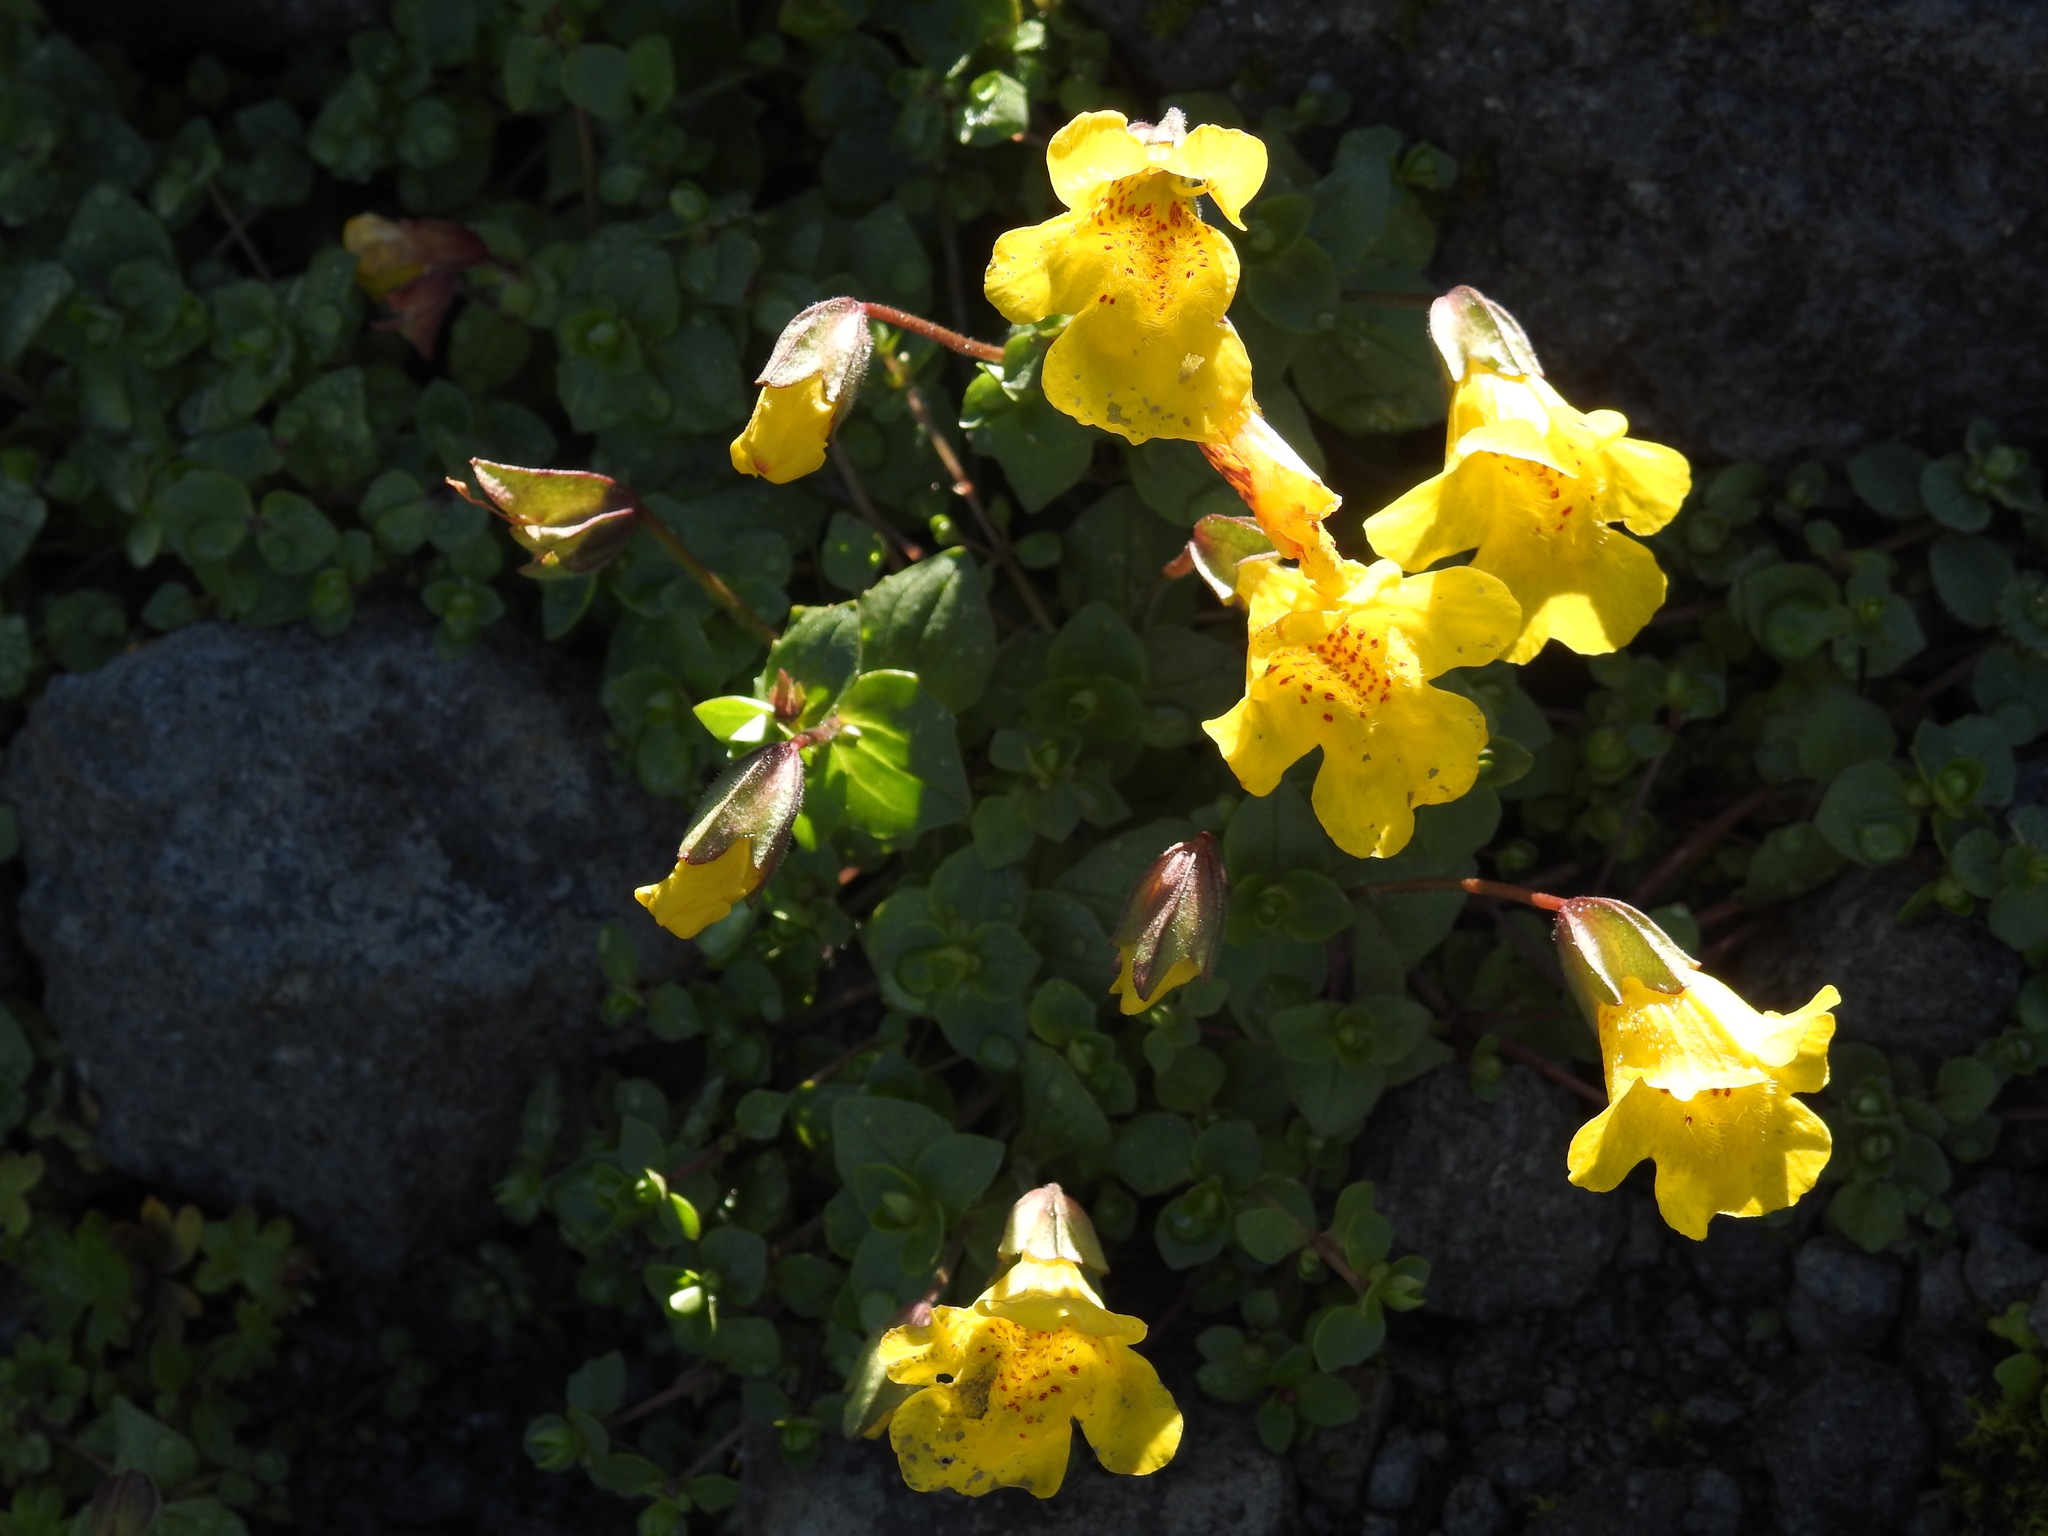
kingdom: Plantae
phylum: Tracheophyta
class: Magnoliopsida
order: Lamiales
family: Phrymaceae
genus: Erythranthe
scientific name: Erythranthe guttata
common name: Monkeyflower
